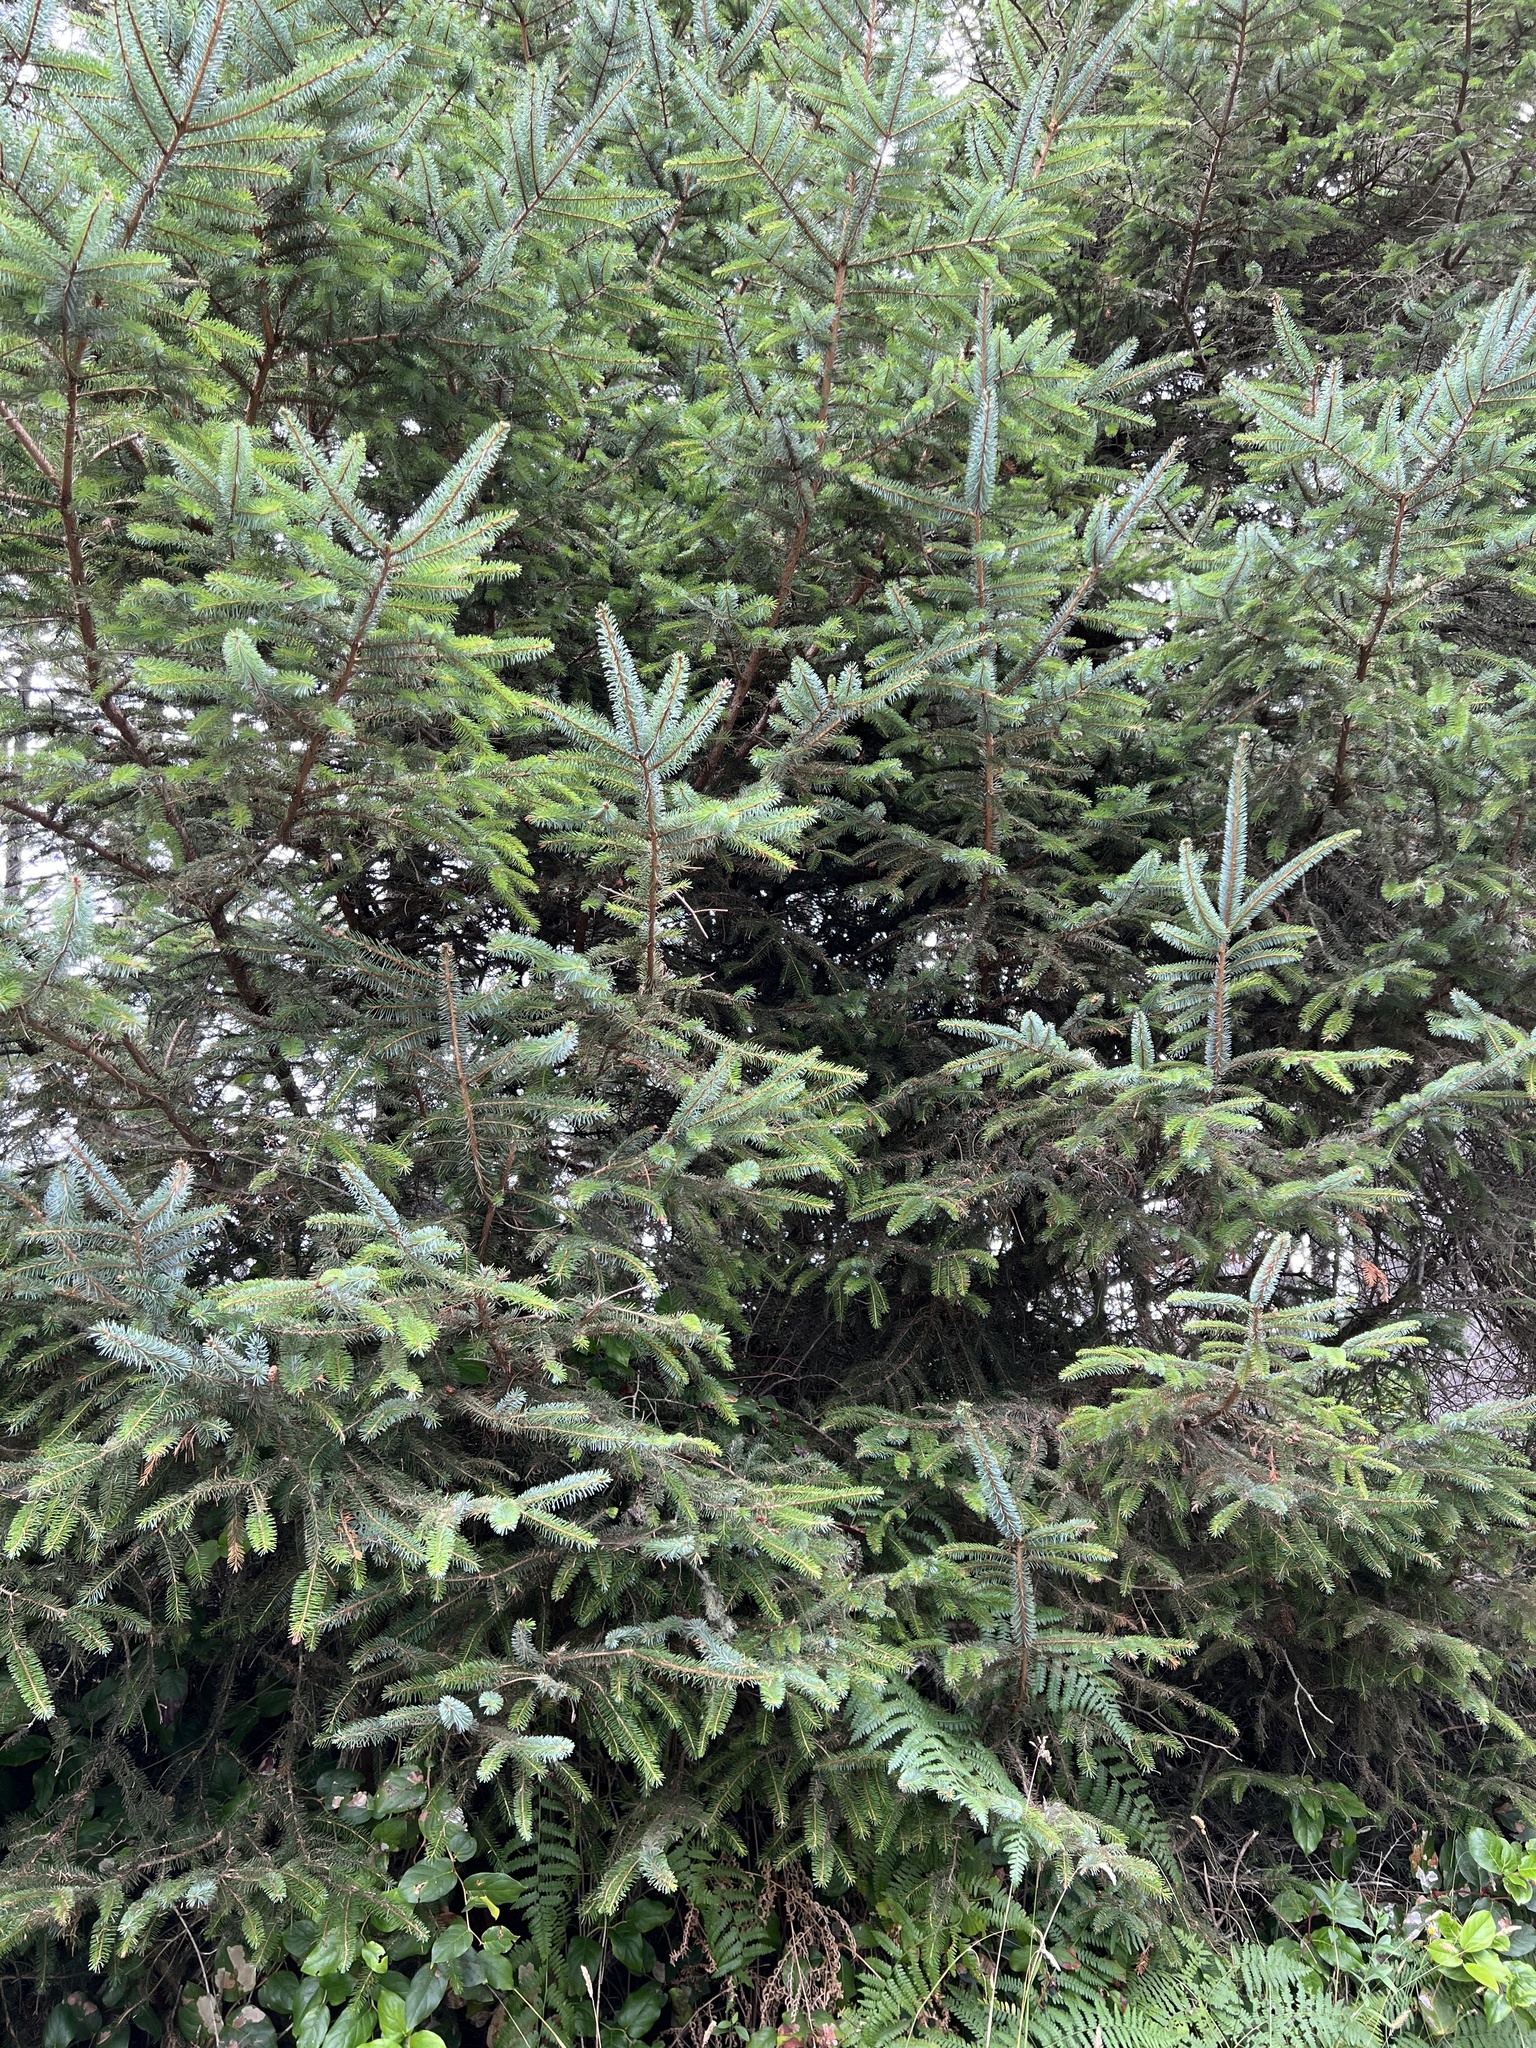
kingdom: Plantae
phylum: Tracheophyta
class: Pinopsida
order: Pinales
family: Pinaceae
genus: Picea
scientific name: Picea sitchensis
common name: Sitka spruce
